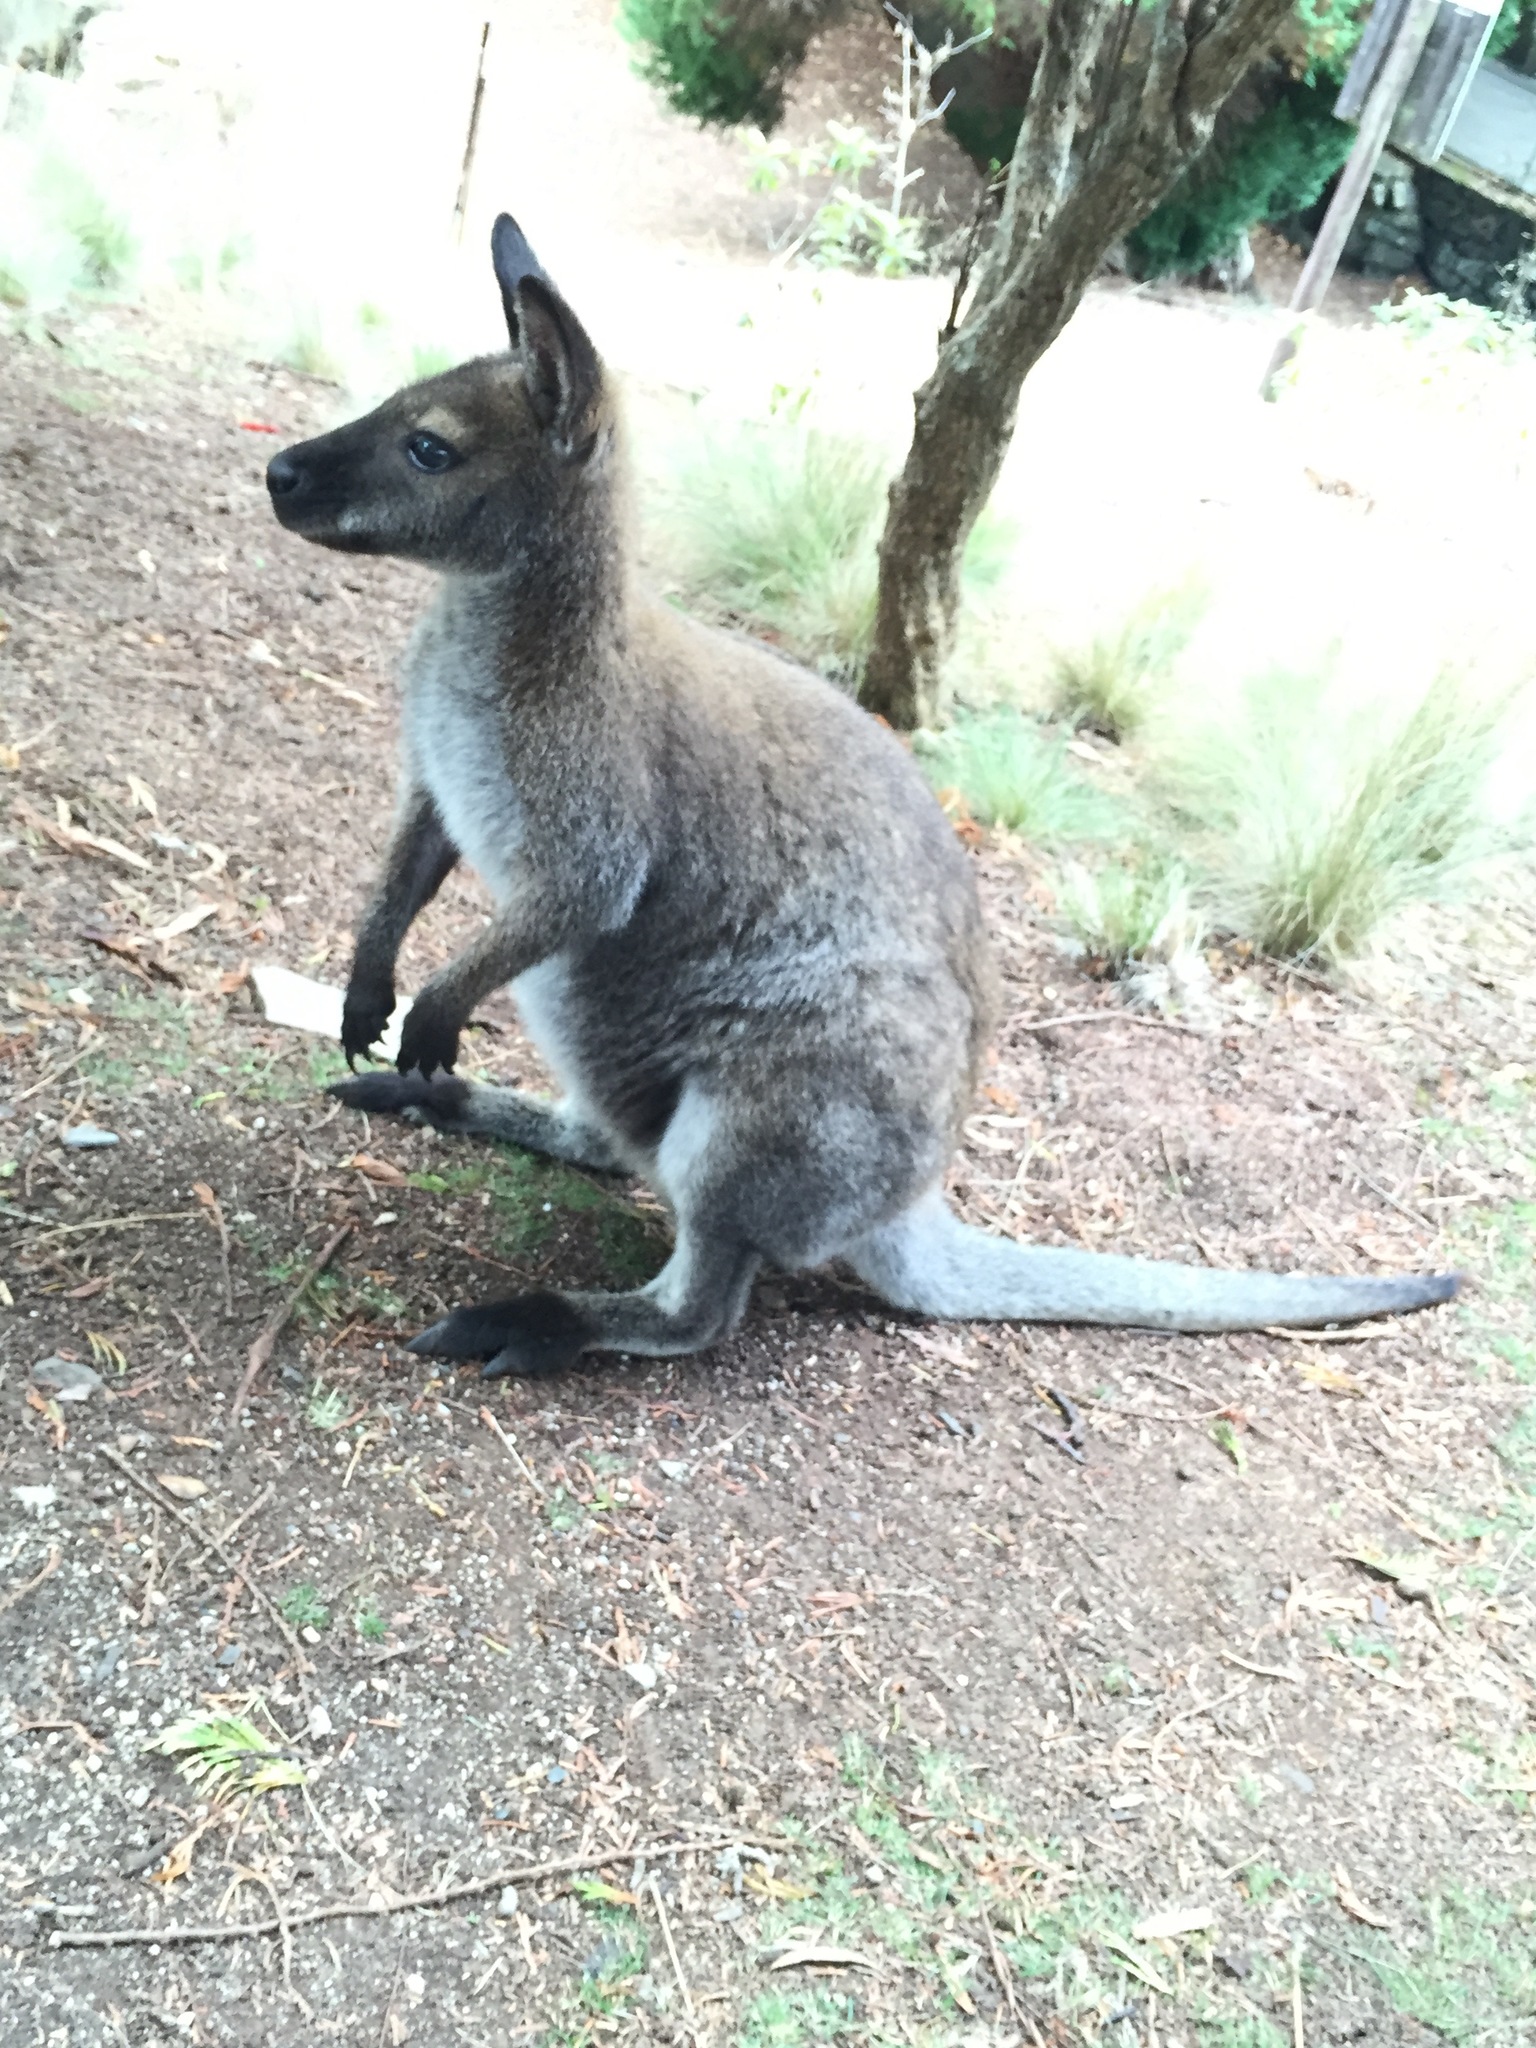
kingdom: Animalia
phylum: Chordata
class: Mammalia
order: Diprotodontia
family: Macropodidae
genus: Notamacropus
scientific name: Notamacropus rufogriseus
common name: Red-necked wallaby
